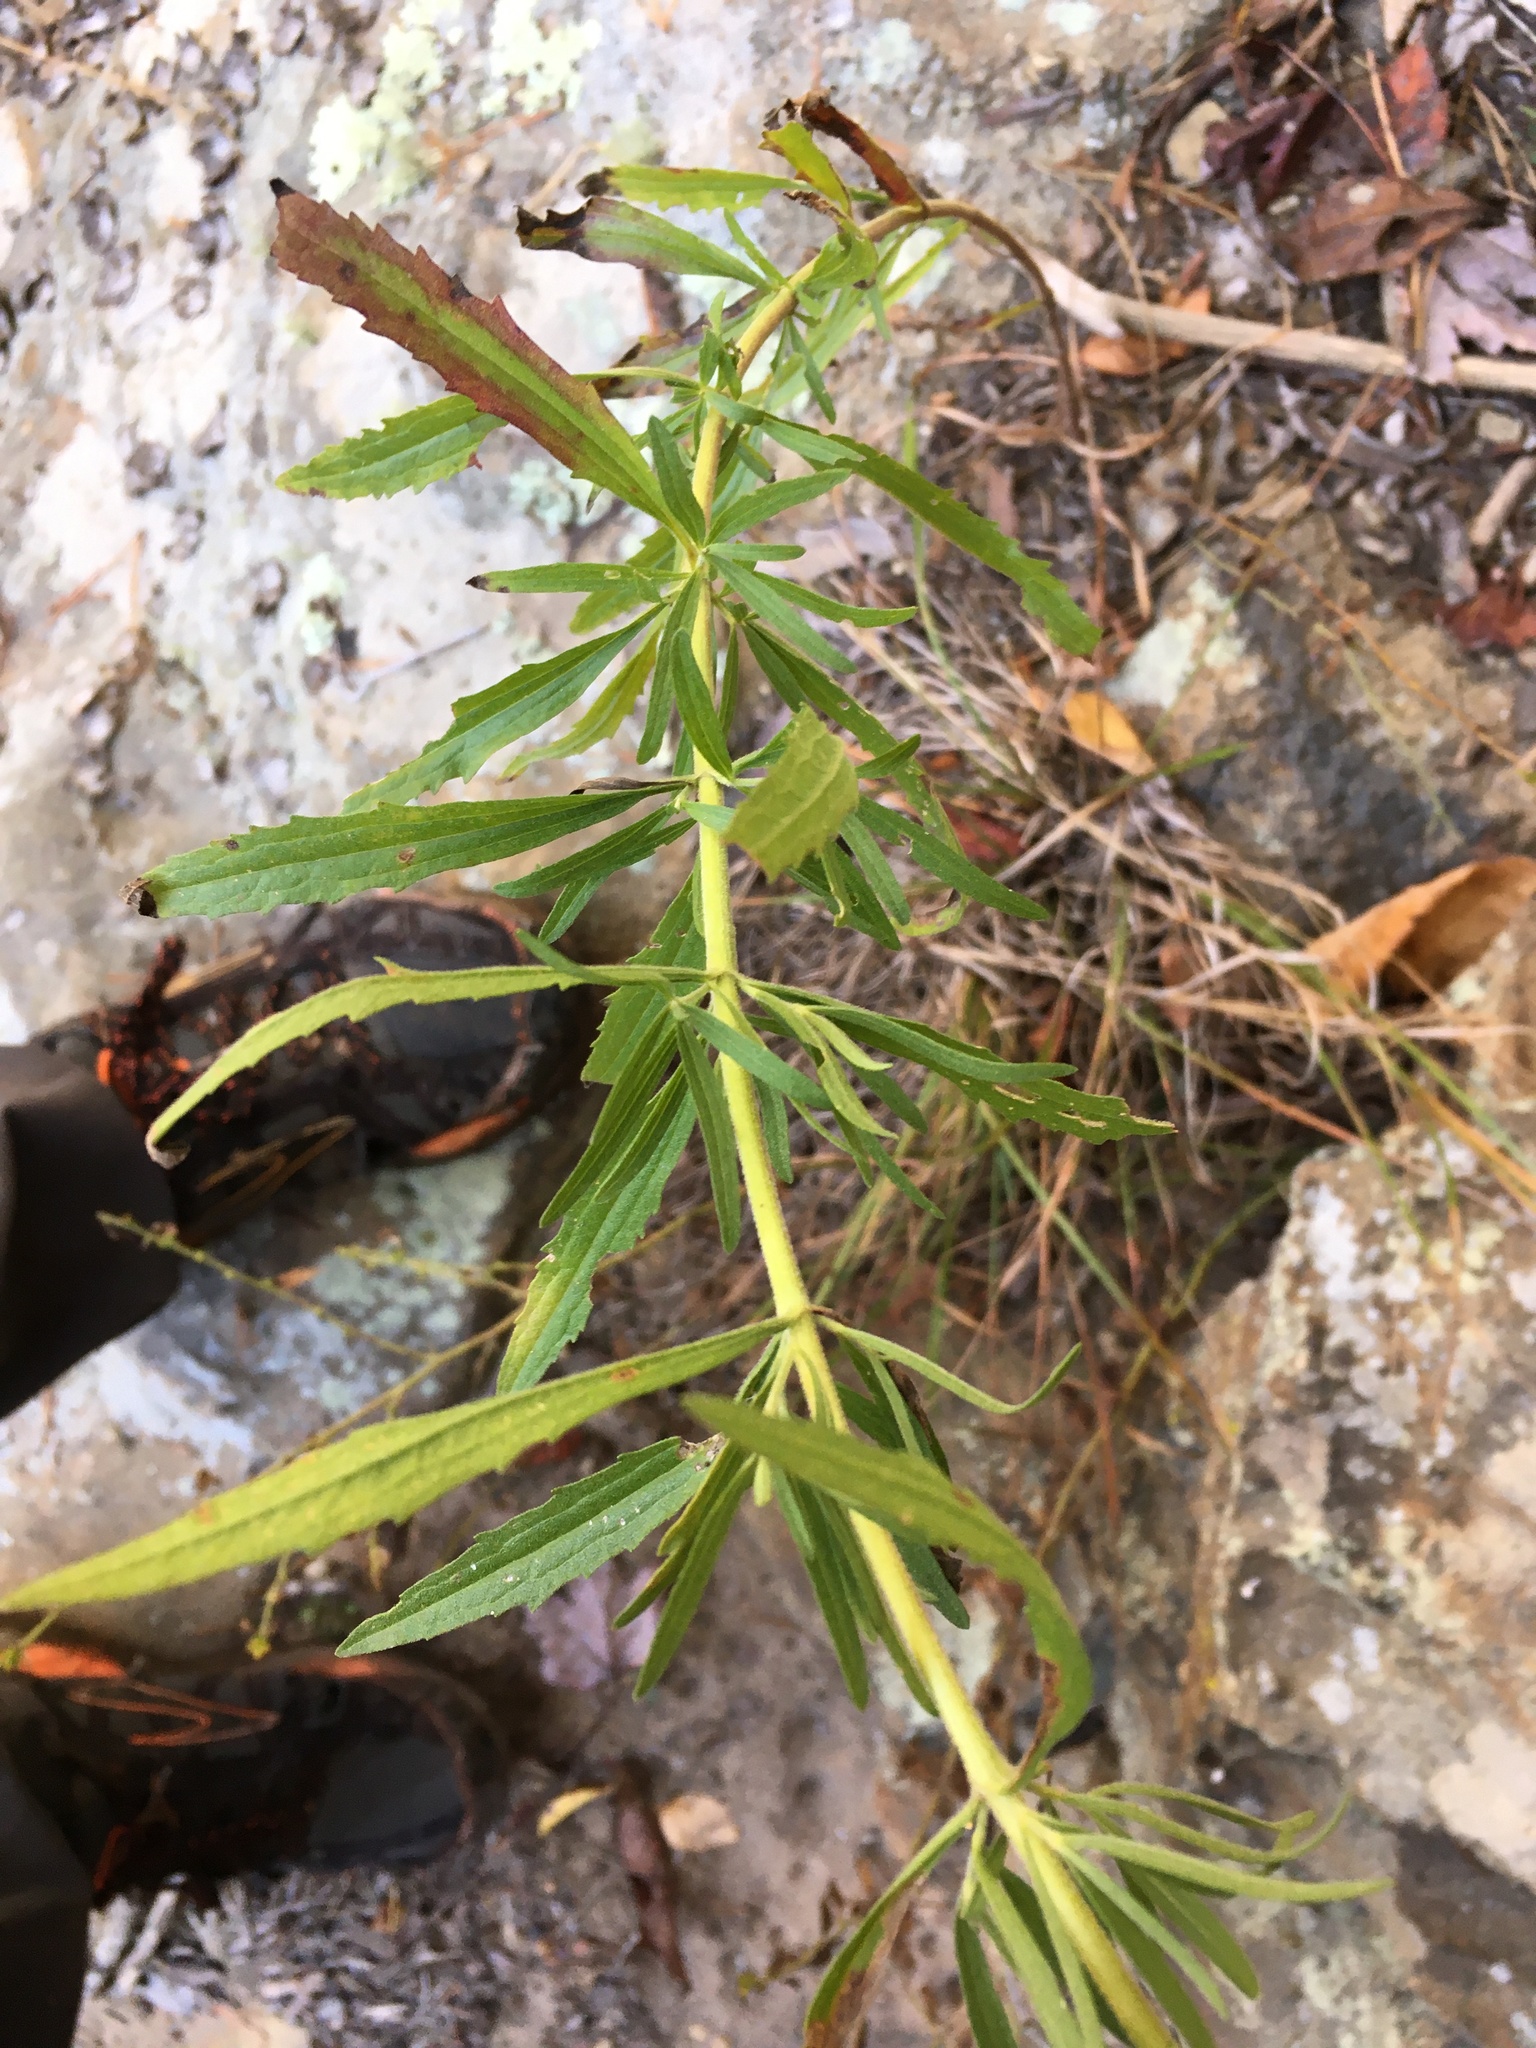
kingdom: Plantae
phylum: Tracheophyta
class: Magnoliopsida
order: Asterales
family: Asteraceae
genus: Eupatorium
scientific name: Eupatorium torreyanum
